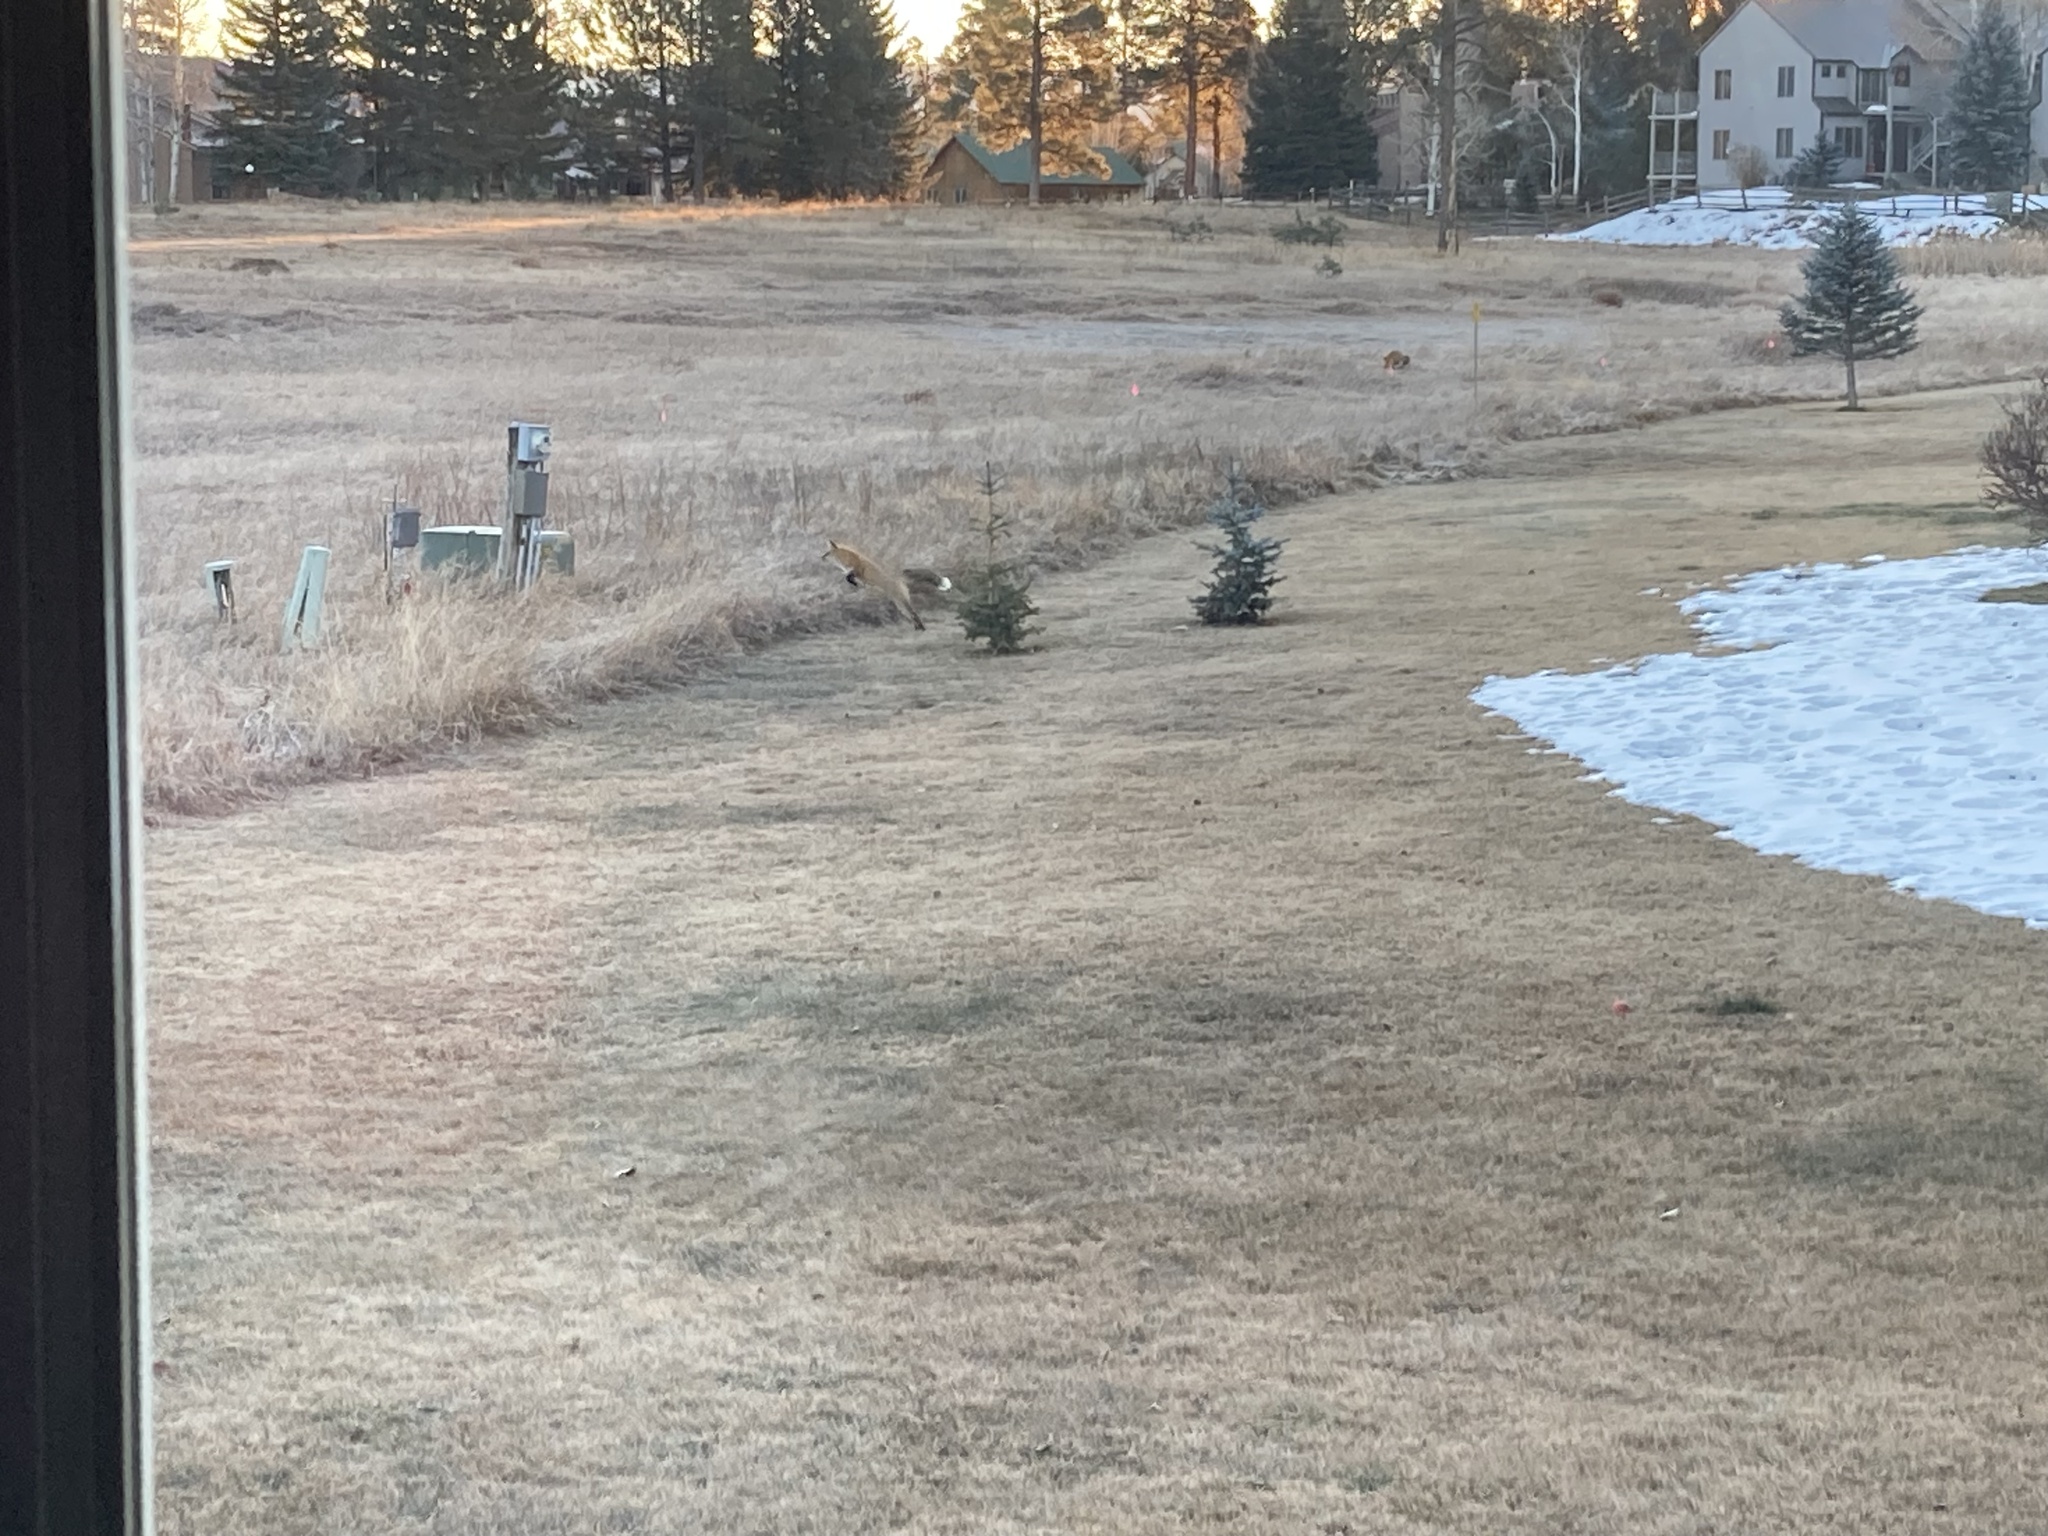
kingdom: Animalia
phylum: Chordata
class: Mammalia
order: Carnivora
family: Canidae
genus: Vulpes
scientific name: Vulpes vulpes
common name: Red fox
